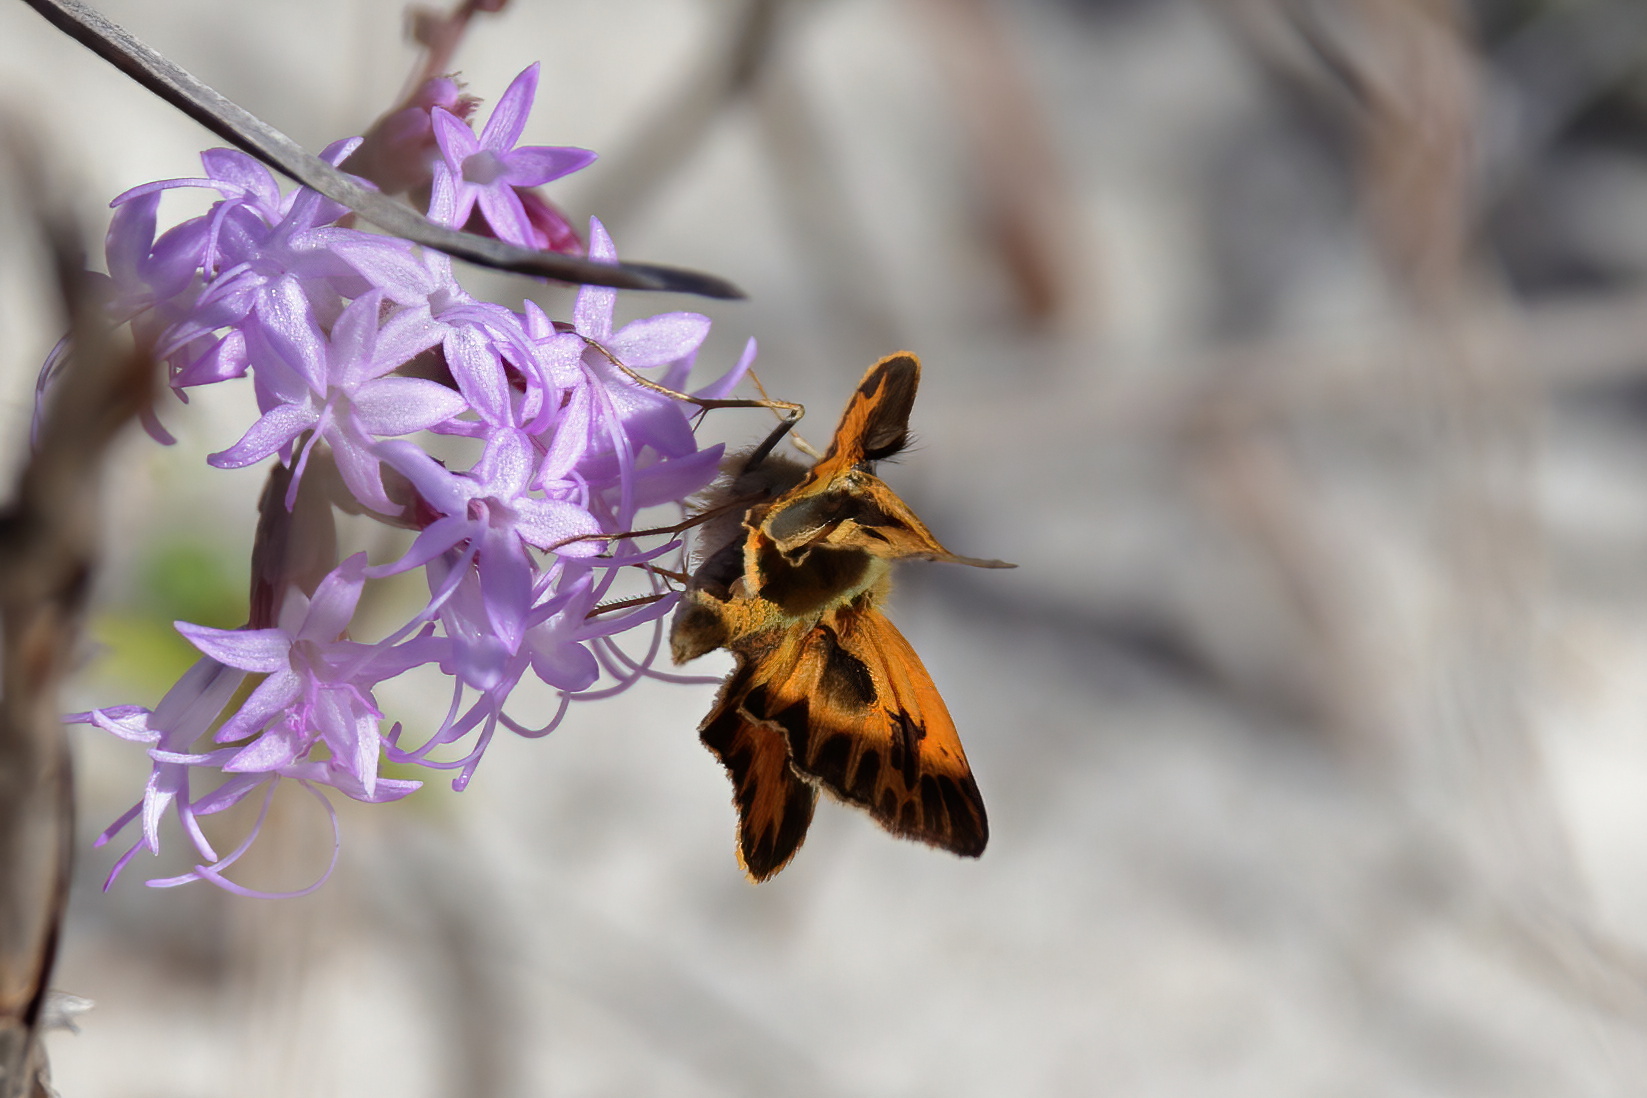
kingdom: Animalia
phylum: Arthropoda
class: Insecta
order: Lepidoptera
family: Hesperiidae
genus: Hylephila
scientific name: Hylephila phyleus
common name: Fiery skipper
